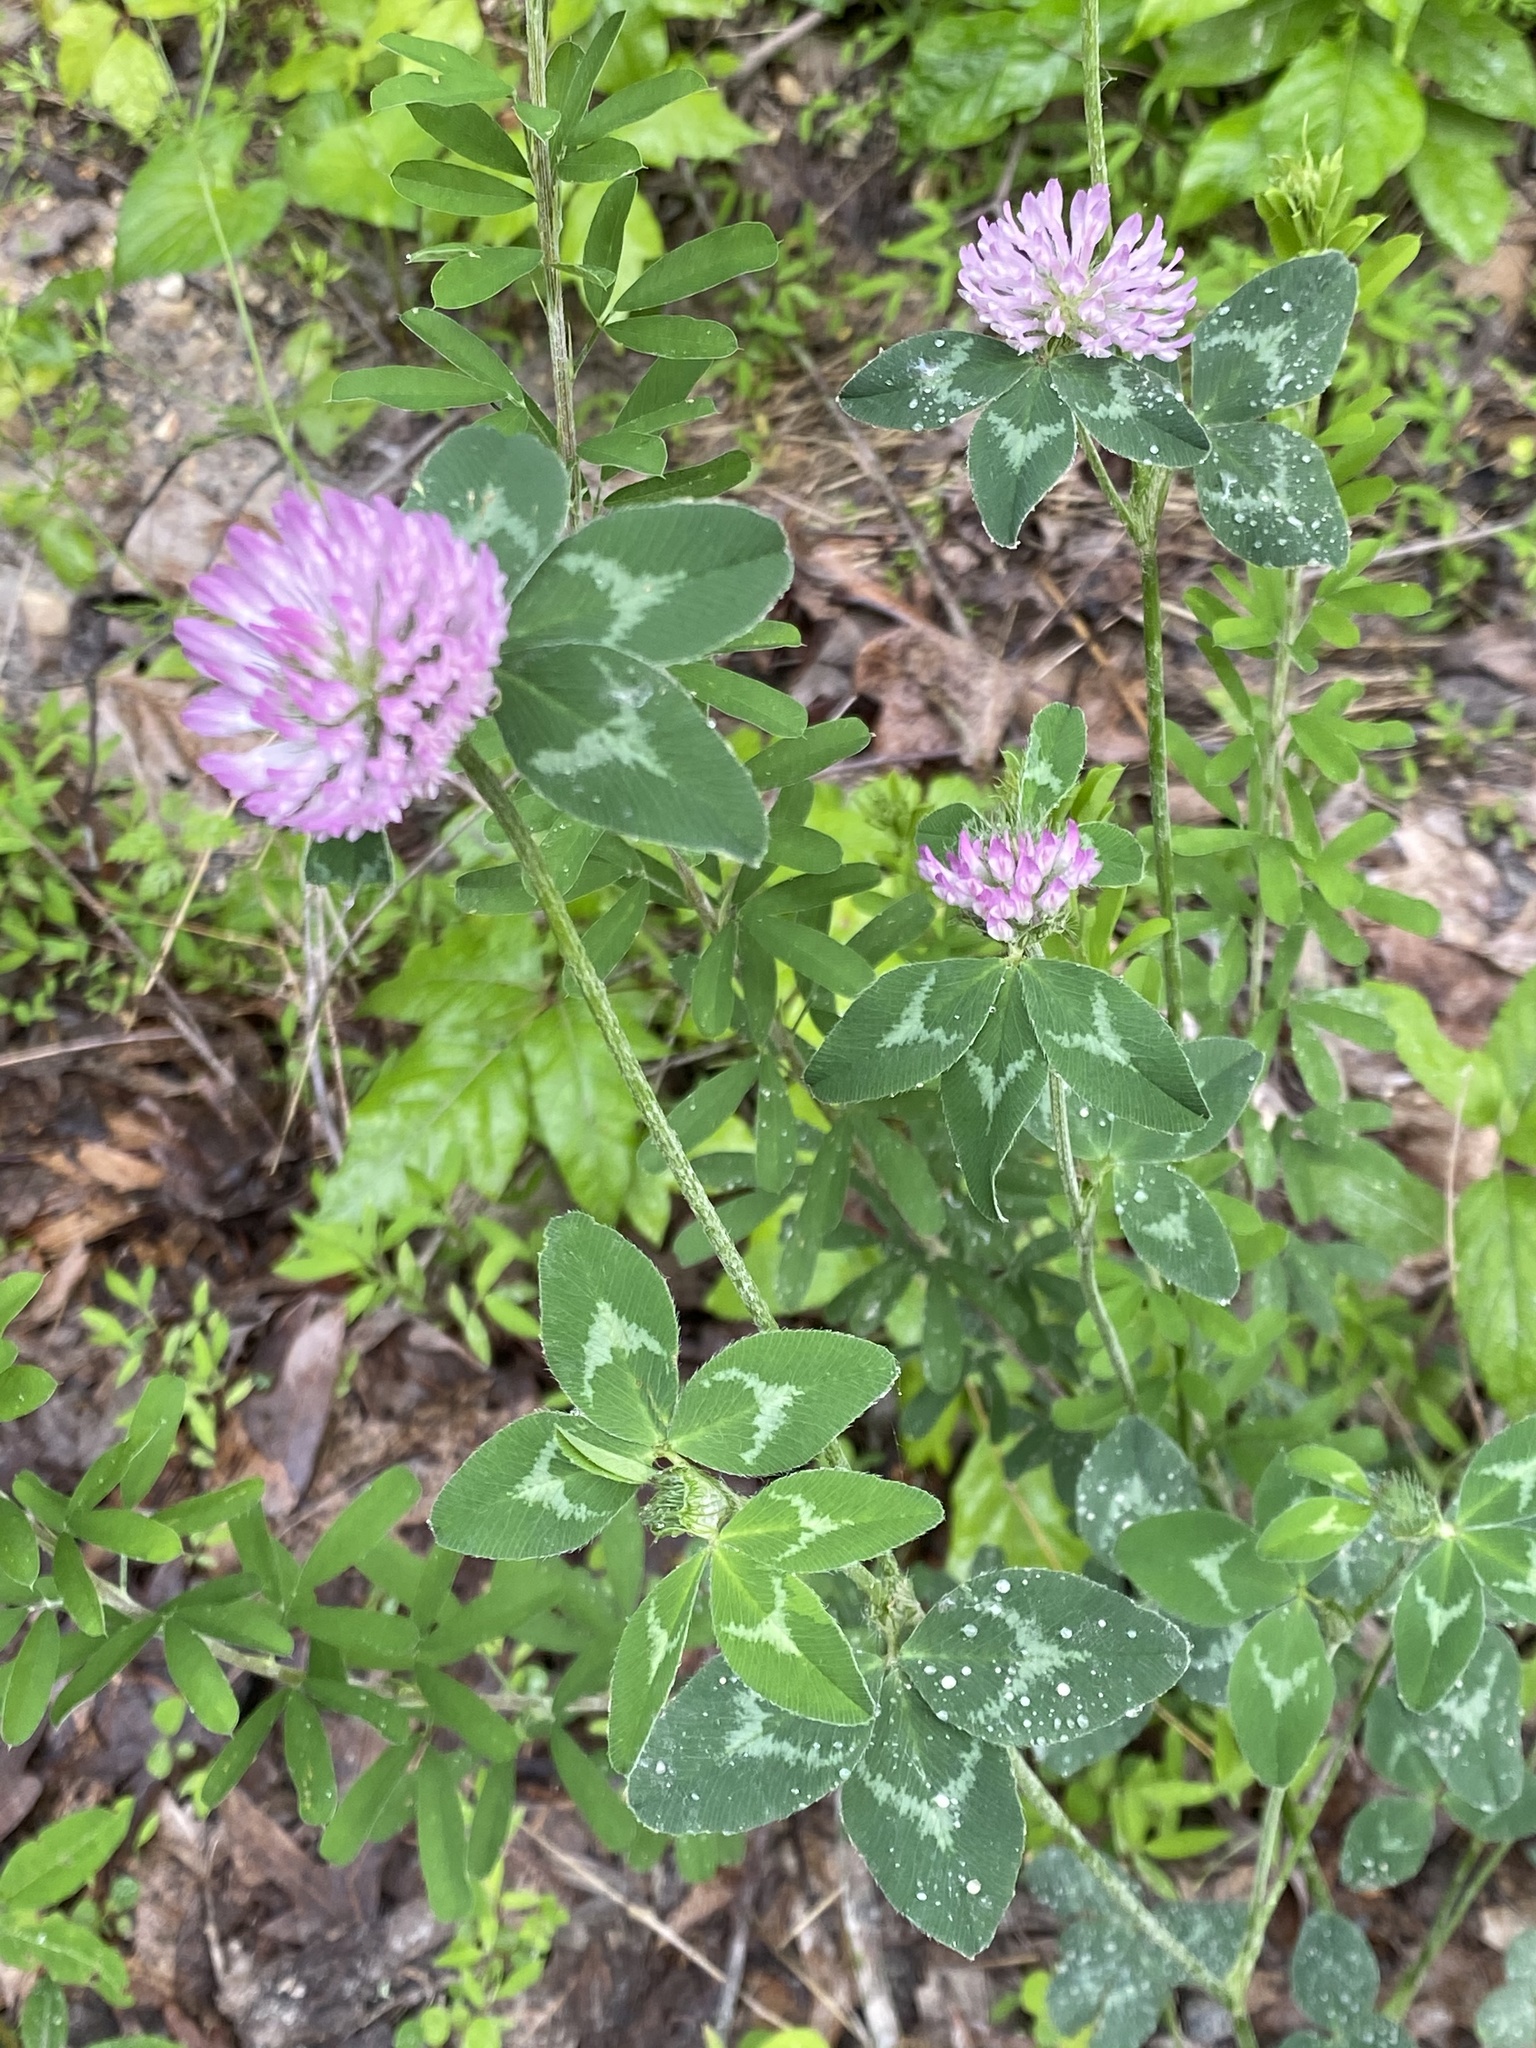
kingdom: Plantae
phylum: Tracheophyta
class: Magnoliopsida
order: Fabales
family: Fabaceae
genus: Trifolium
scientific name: Trifolium pratense
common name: Red clover
